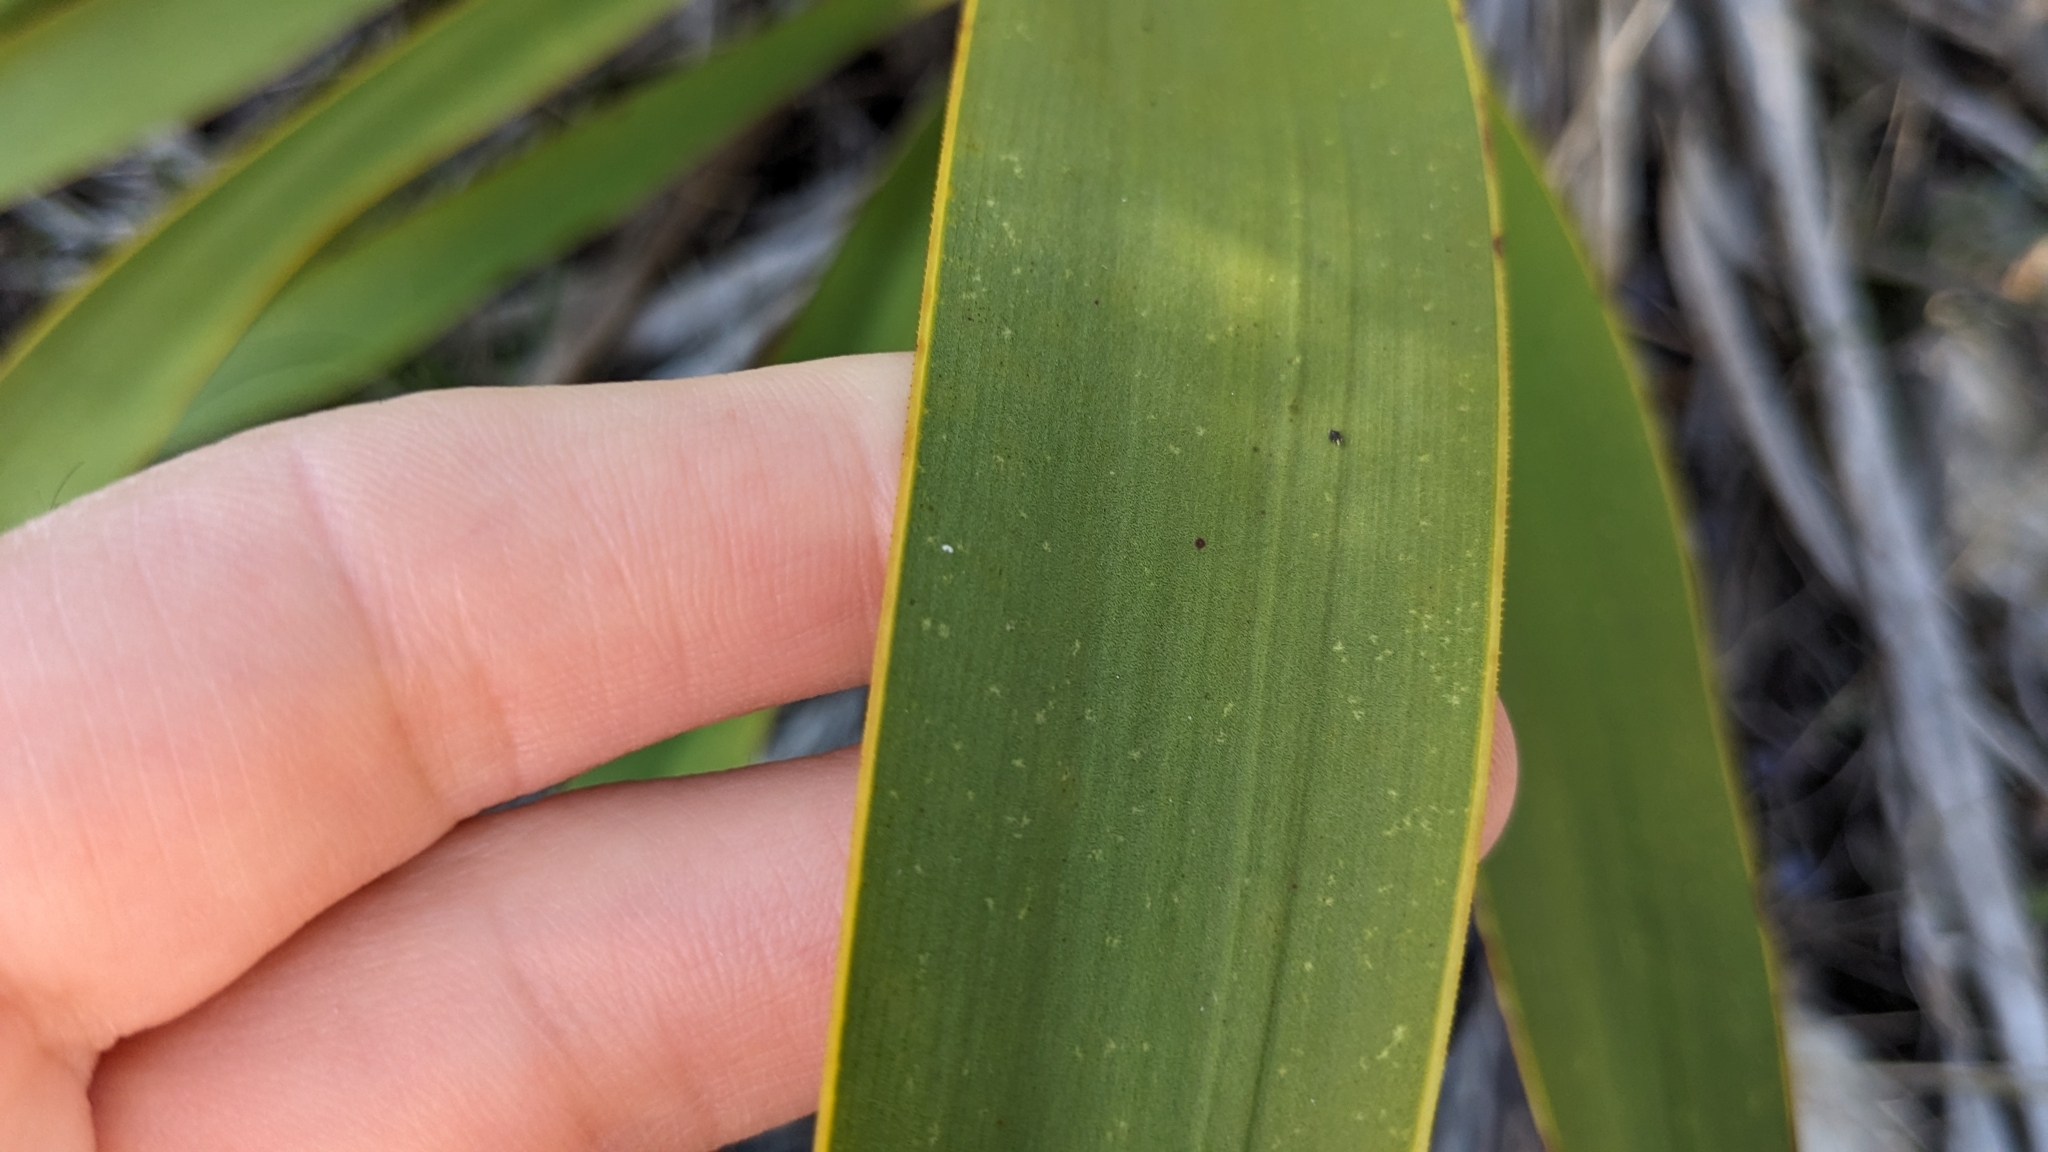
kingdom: Plantae
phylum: Tracheophyta
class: Liliopsida
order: Asparagales
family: Asparagaceae
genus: Yucca
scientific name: Yucca rupicola
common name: Twisted-leaf spanish-dagger
